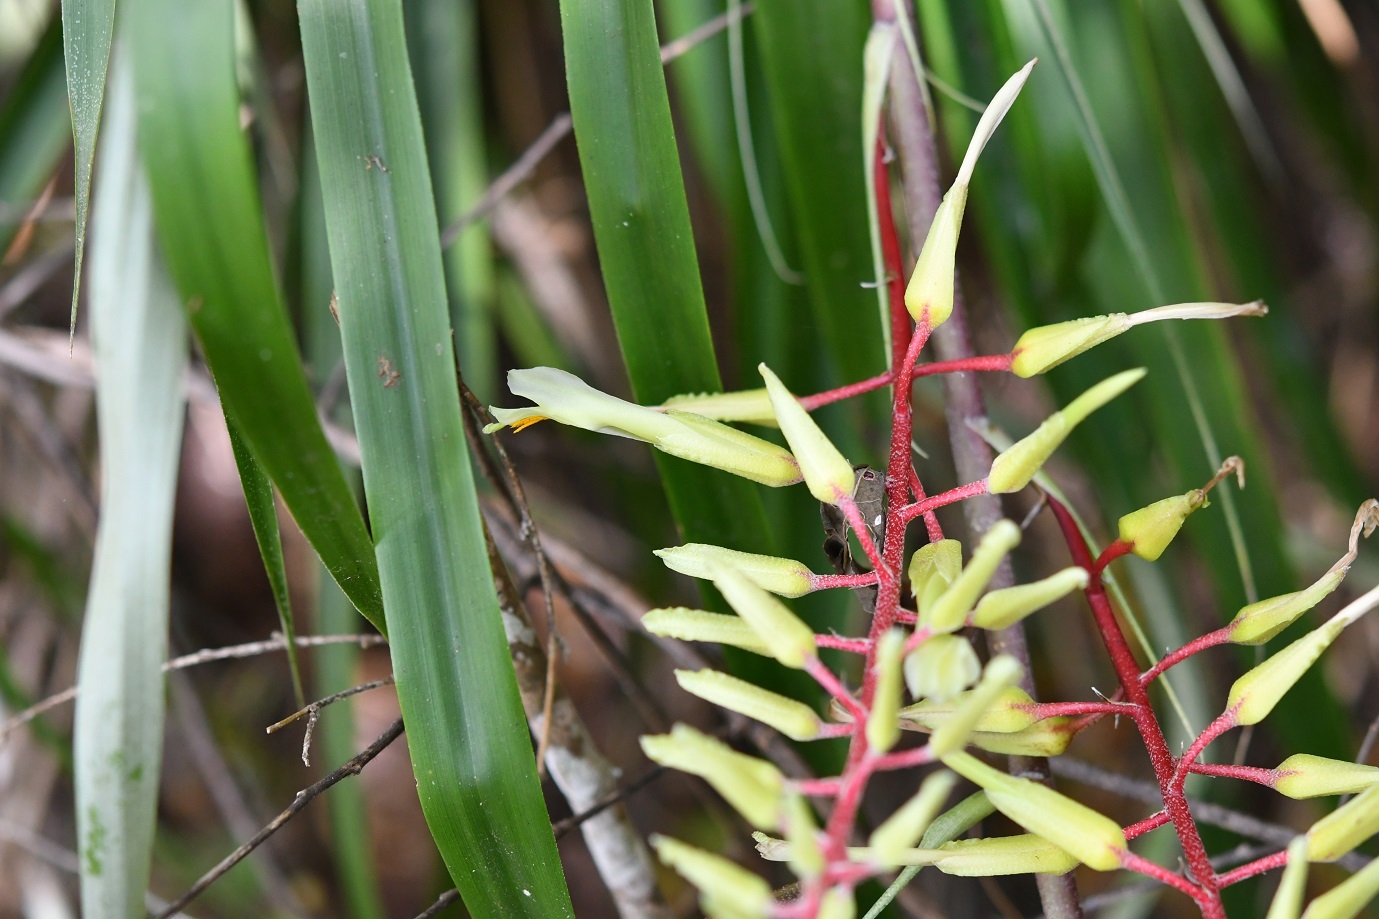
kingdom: Plantae
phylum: Tracheophyta
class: Liliopsida
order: Poales
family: Bromeliaceae
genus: Pitcairnia
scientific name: Pitcairnia breedlovei
